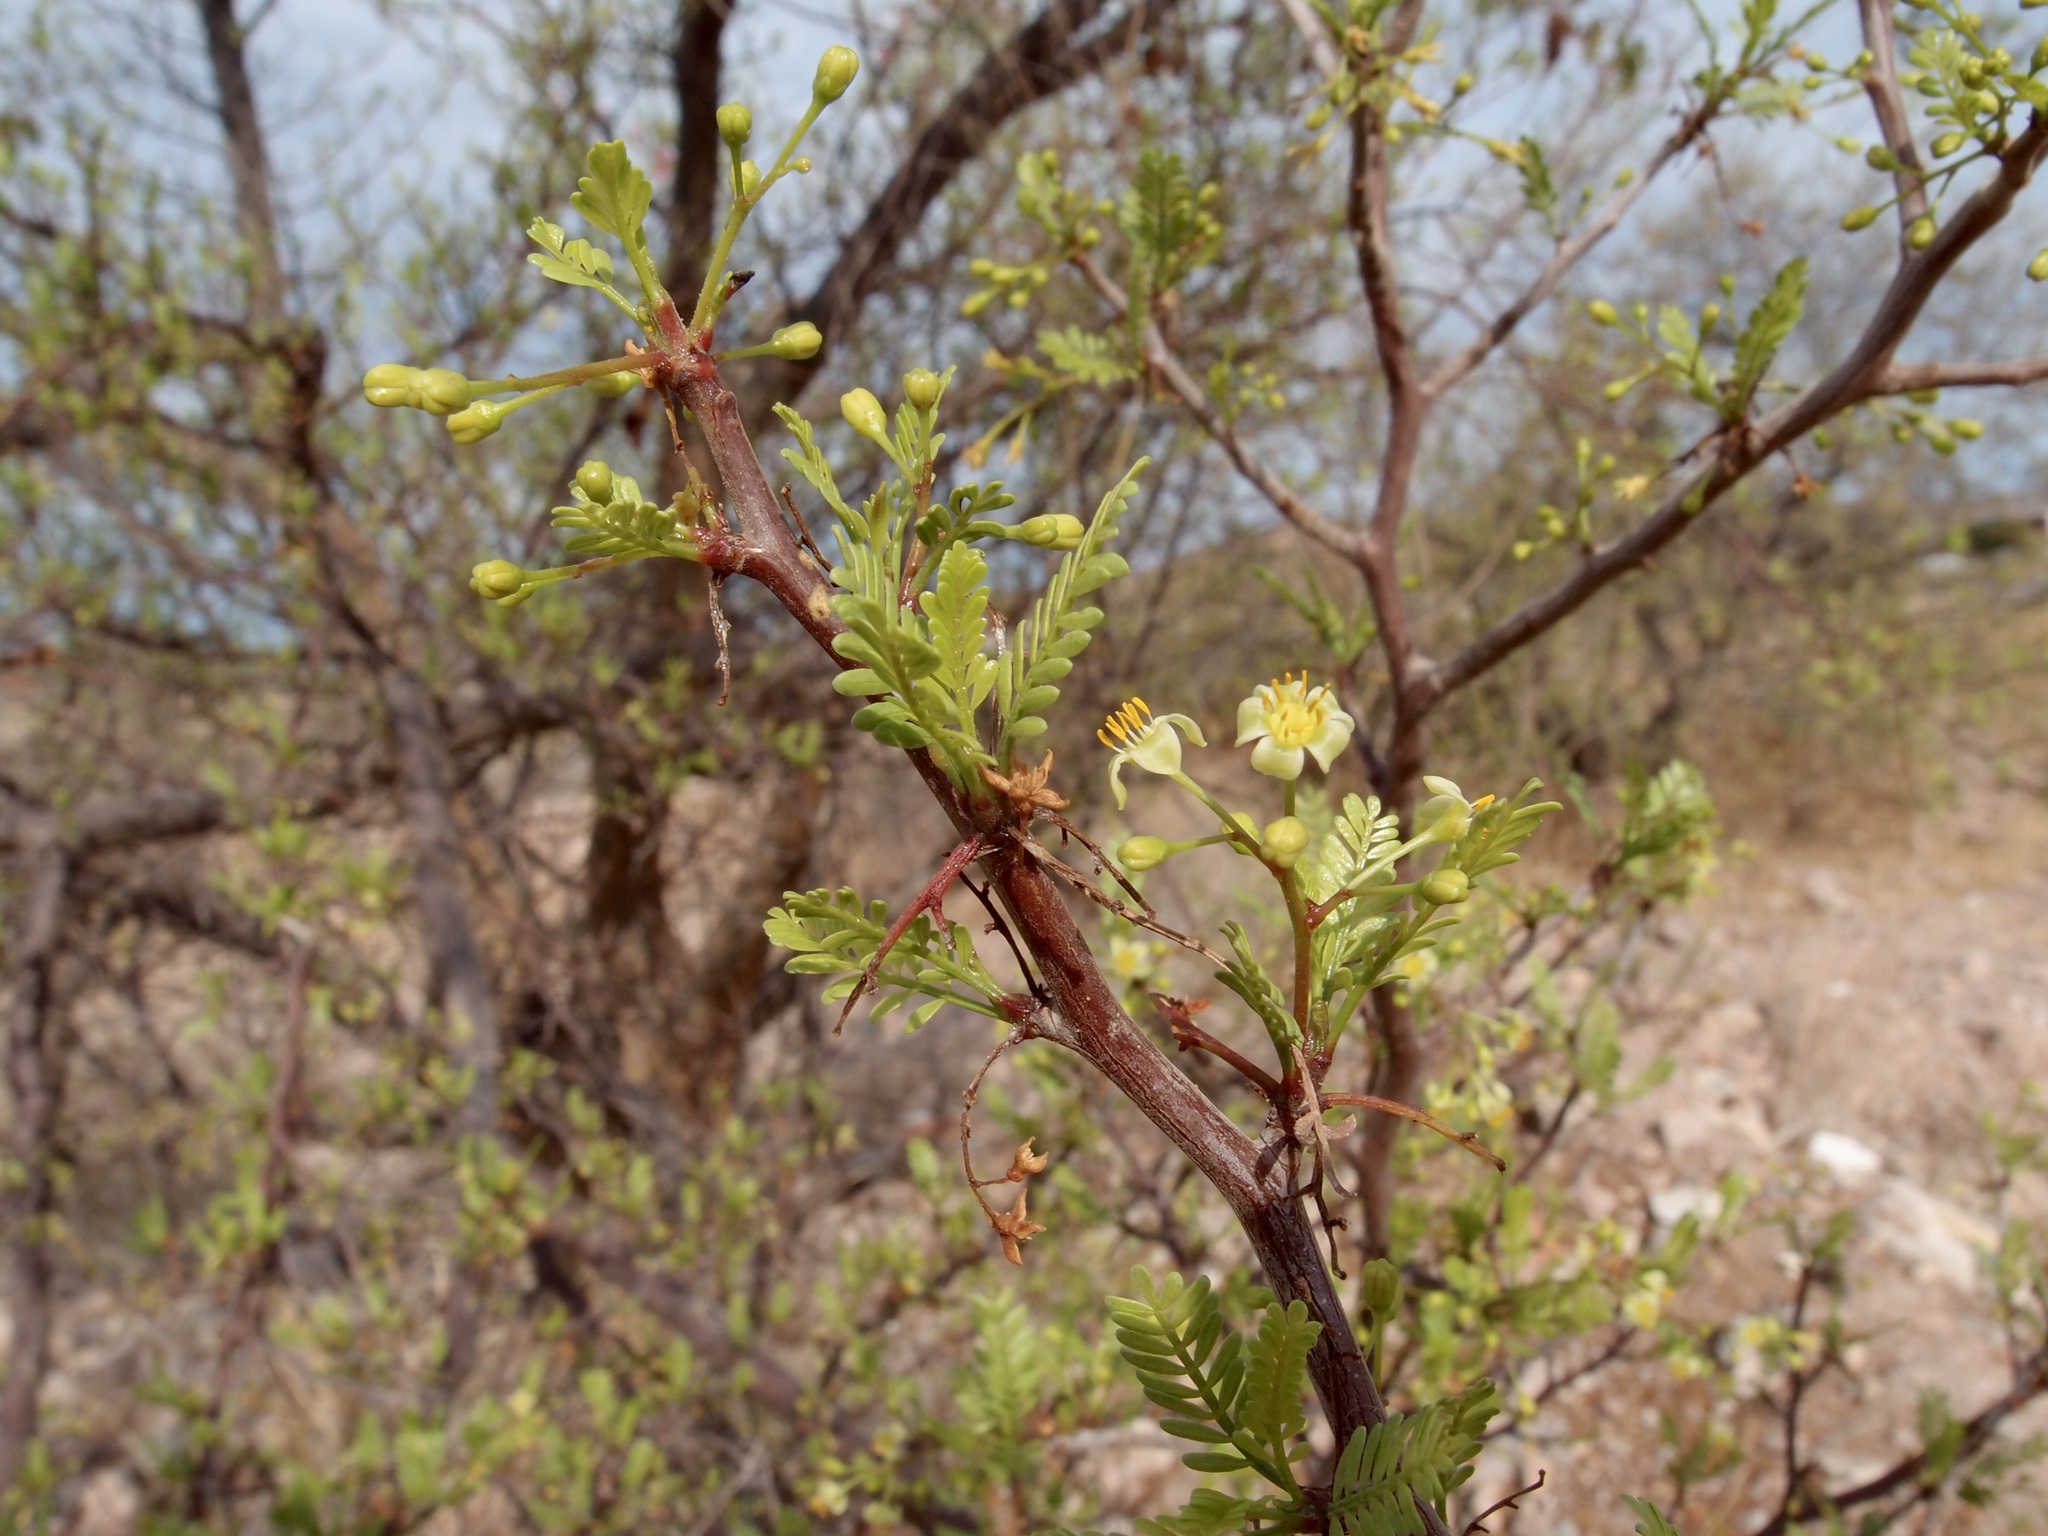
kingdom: Plantae
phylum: Tracheophyta
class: Magnoliopsida
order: Sapindales
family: Burseraceae
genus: Bursera
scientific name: Bursera microphylla
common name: Elephant tree
